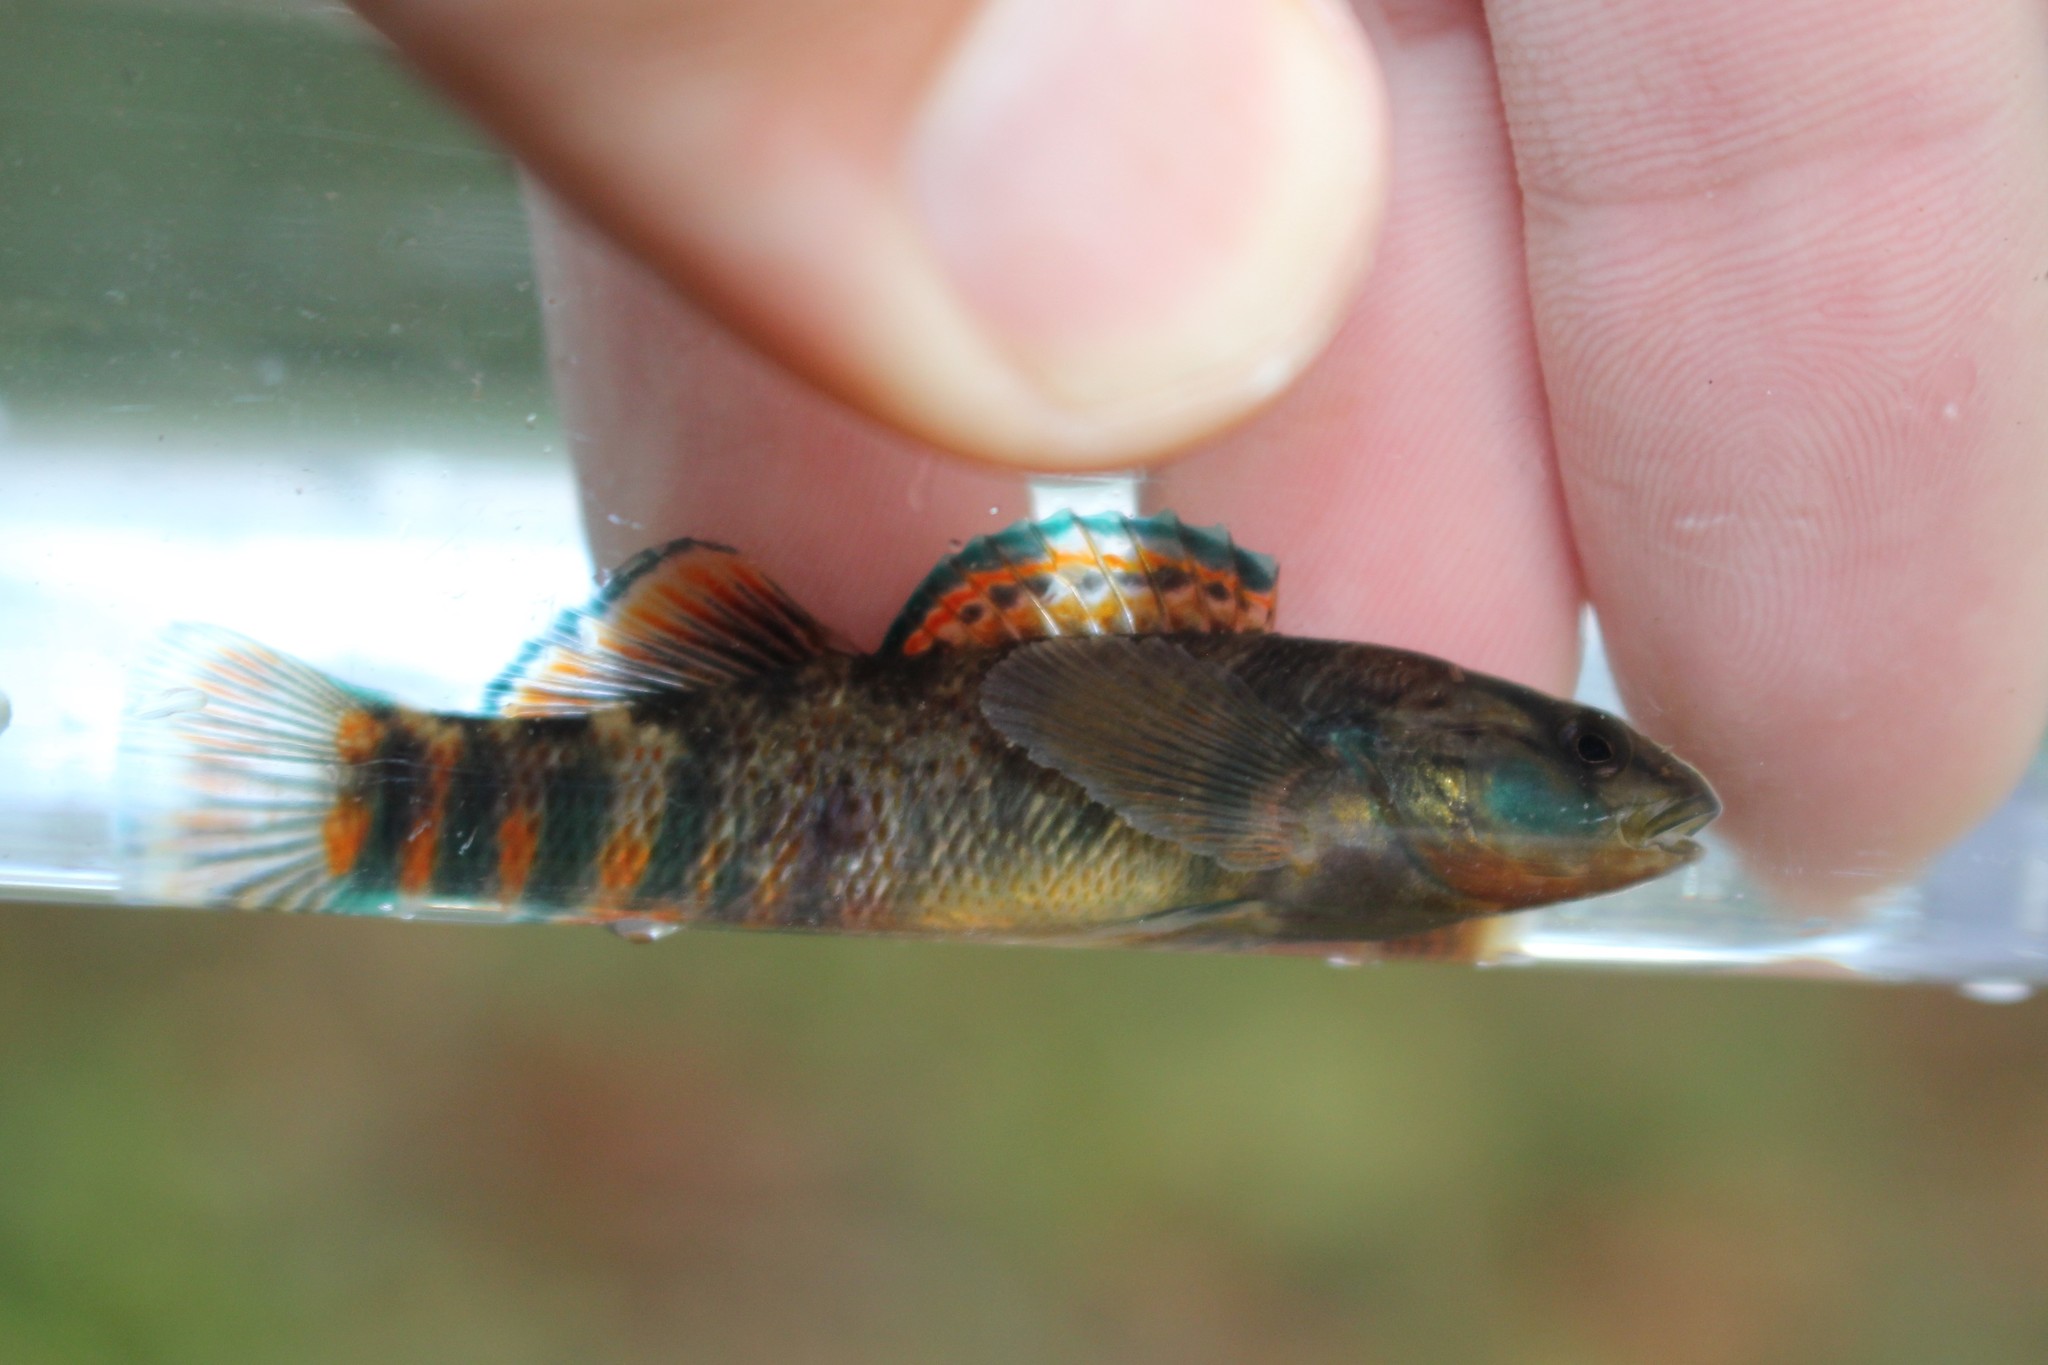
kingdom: Animalia
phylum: Chordata
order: Perciformes
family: Percidae
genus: Etheostoma
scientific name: Etheostoma caeruleum
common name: Rainbow darter
